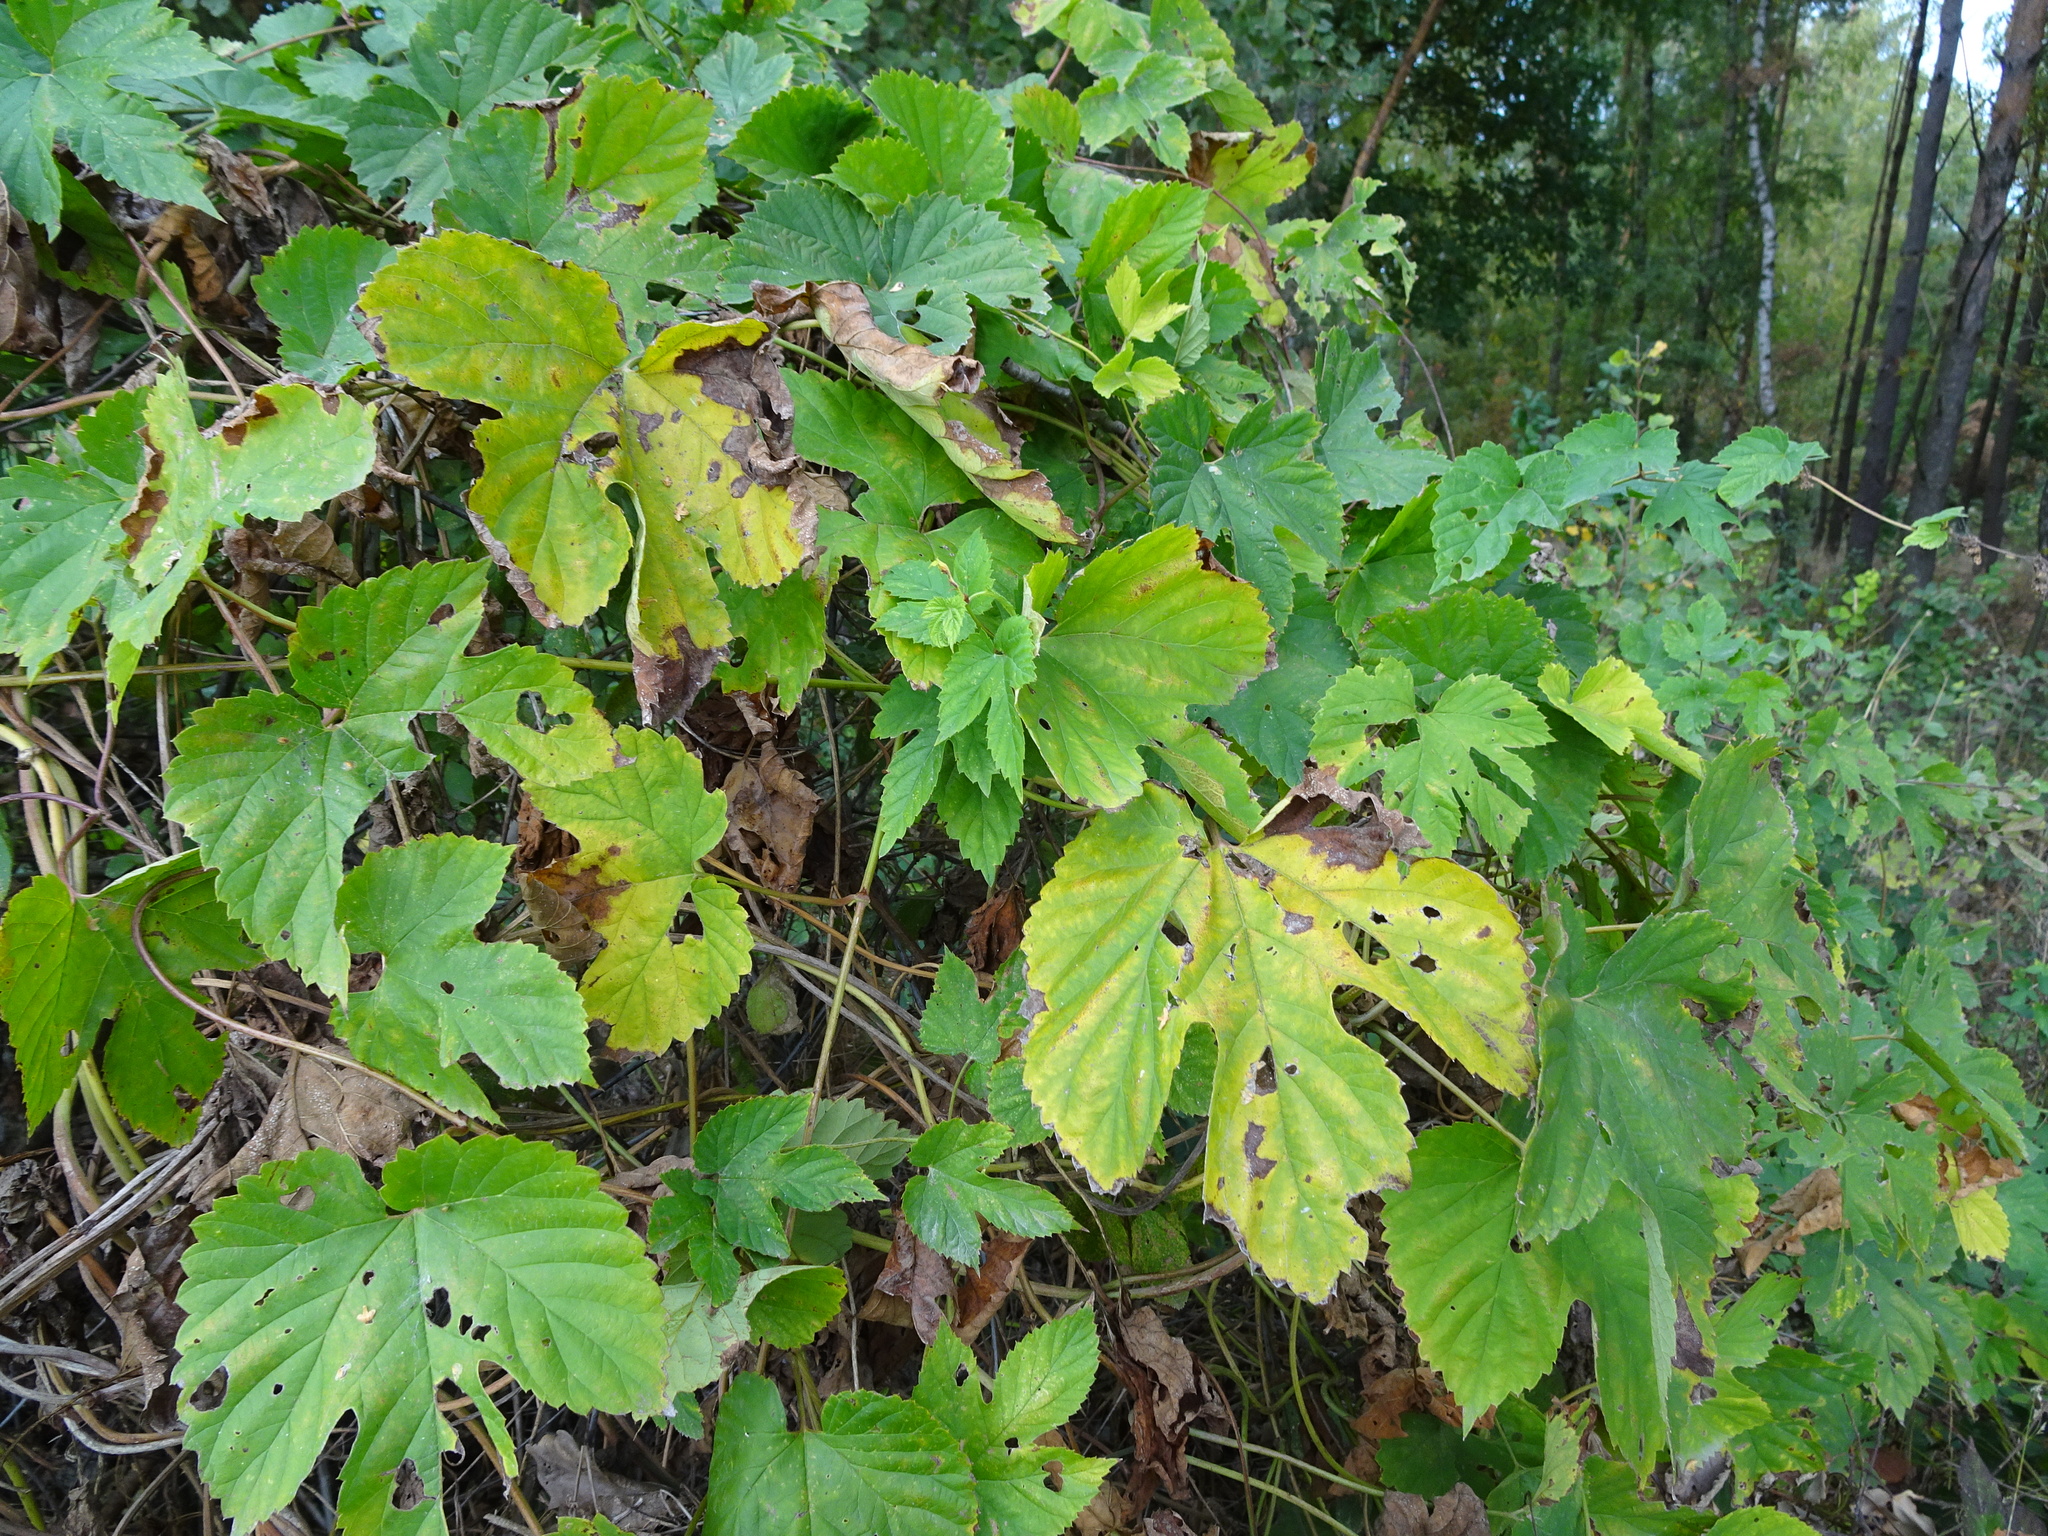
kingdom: Plantae
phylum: Tracheophyta
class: Magnoliopsida
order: Rosales
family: Cannabaceae
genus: Humulus
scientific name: Humulus lupulus
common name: Hop
